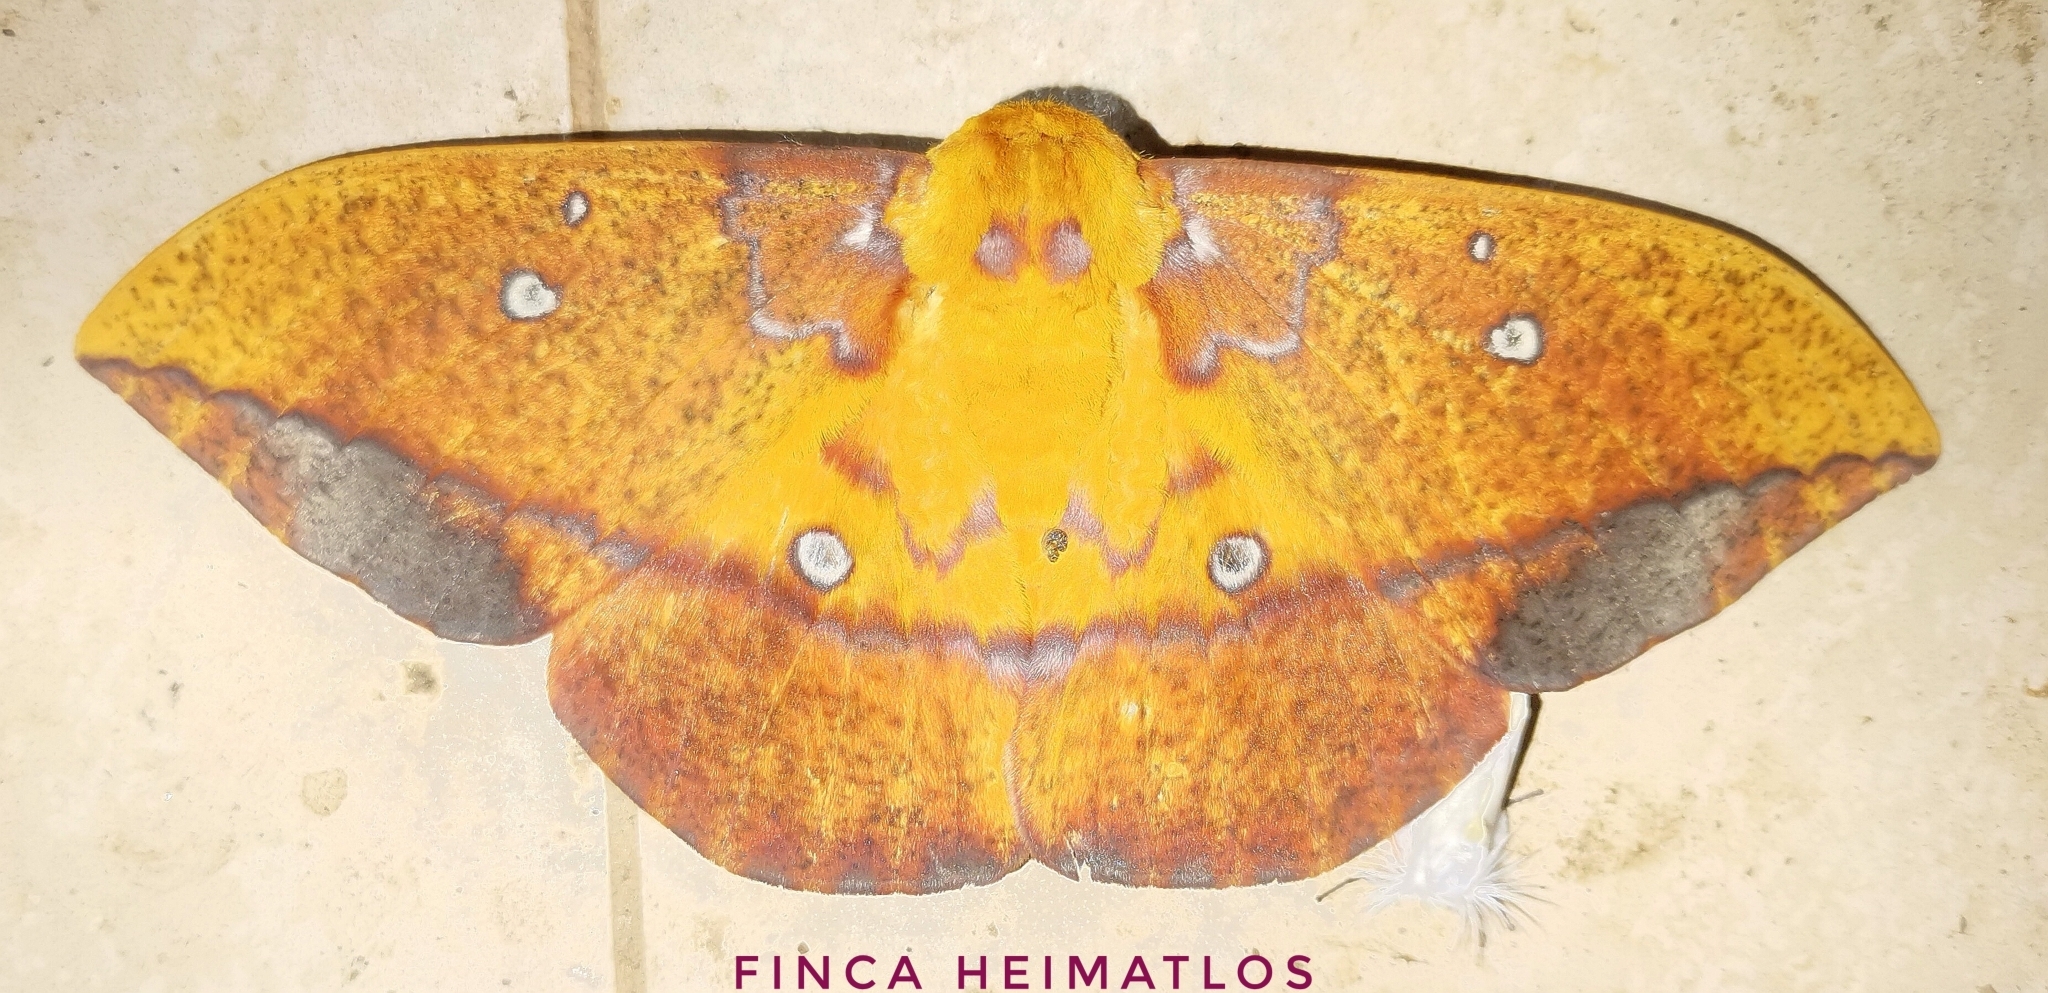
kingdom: Animalia
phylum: Arthropoda
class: Insecta
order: Lepidoptera
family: Saturniidae
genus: Eacles
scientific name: Eacles penelope
